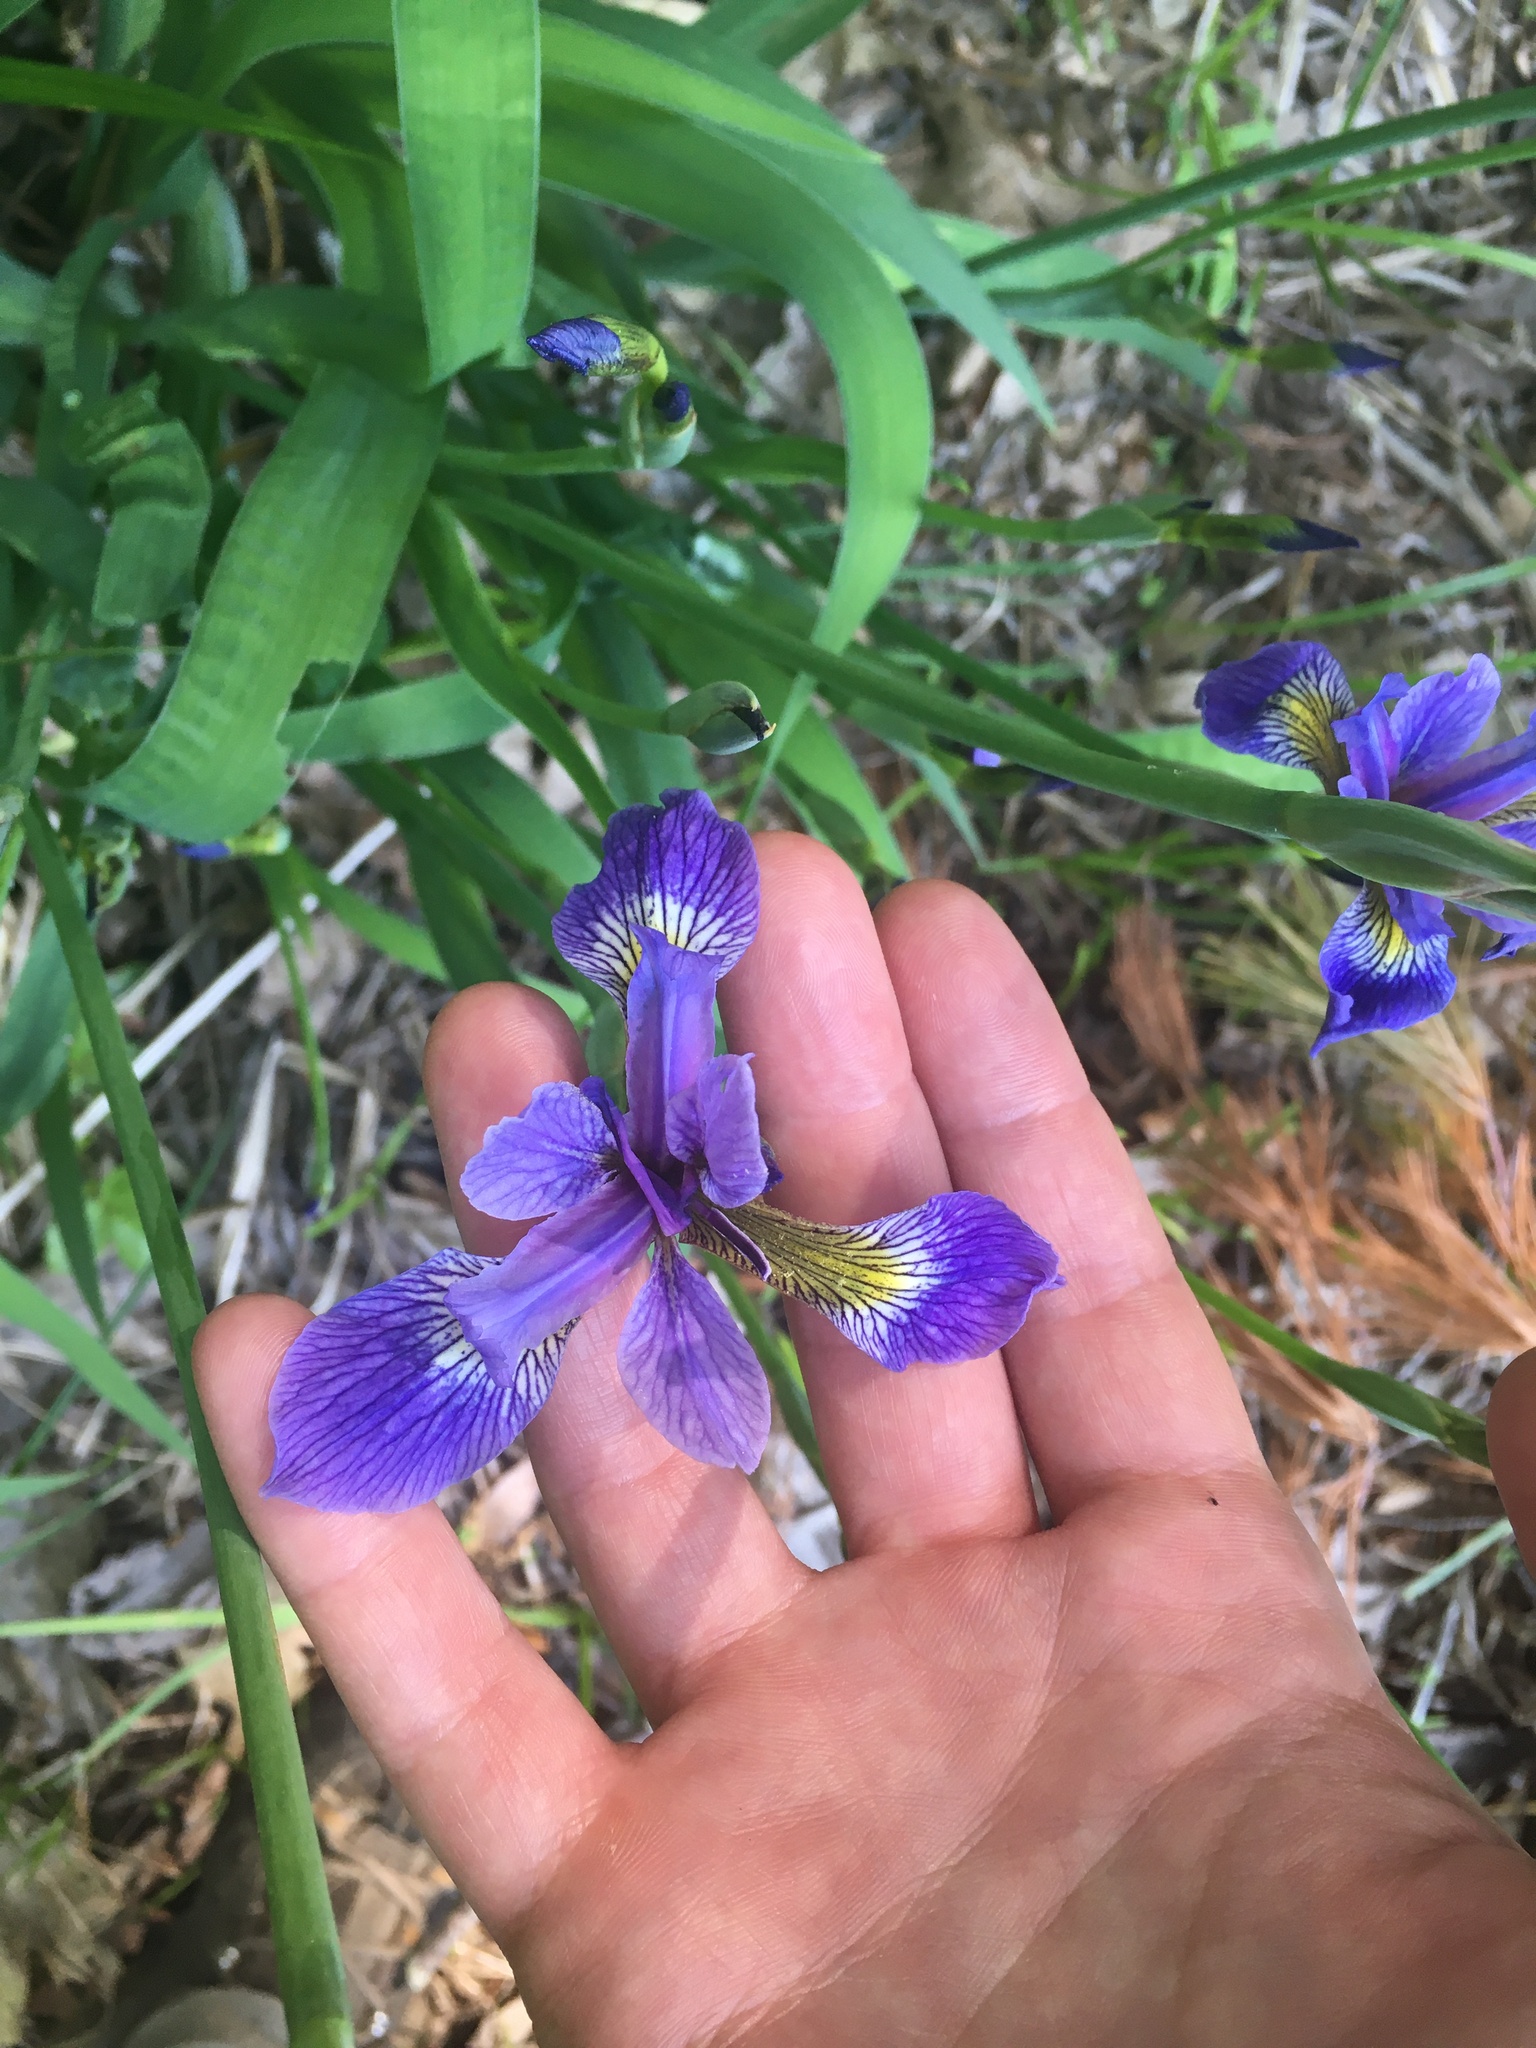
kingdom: Plantae
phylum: Tracheophyta
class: Liliopsida
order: Asparagales
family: Iridaceae
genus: Iris
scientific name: Iris versicolor
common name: Purple iris
